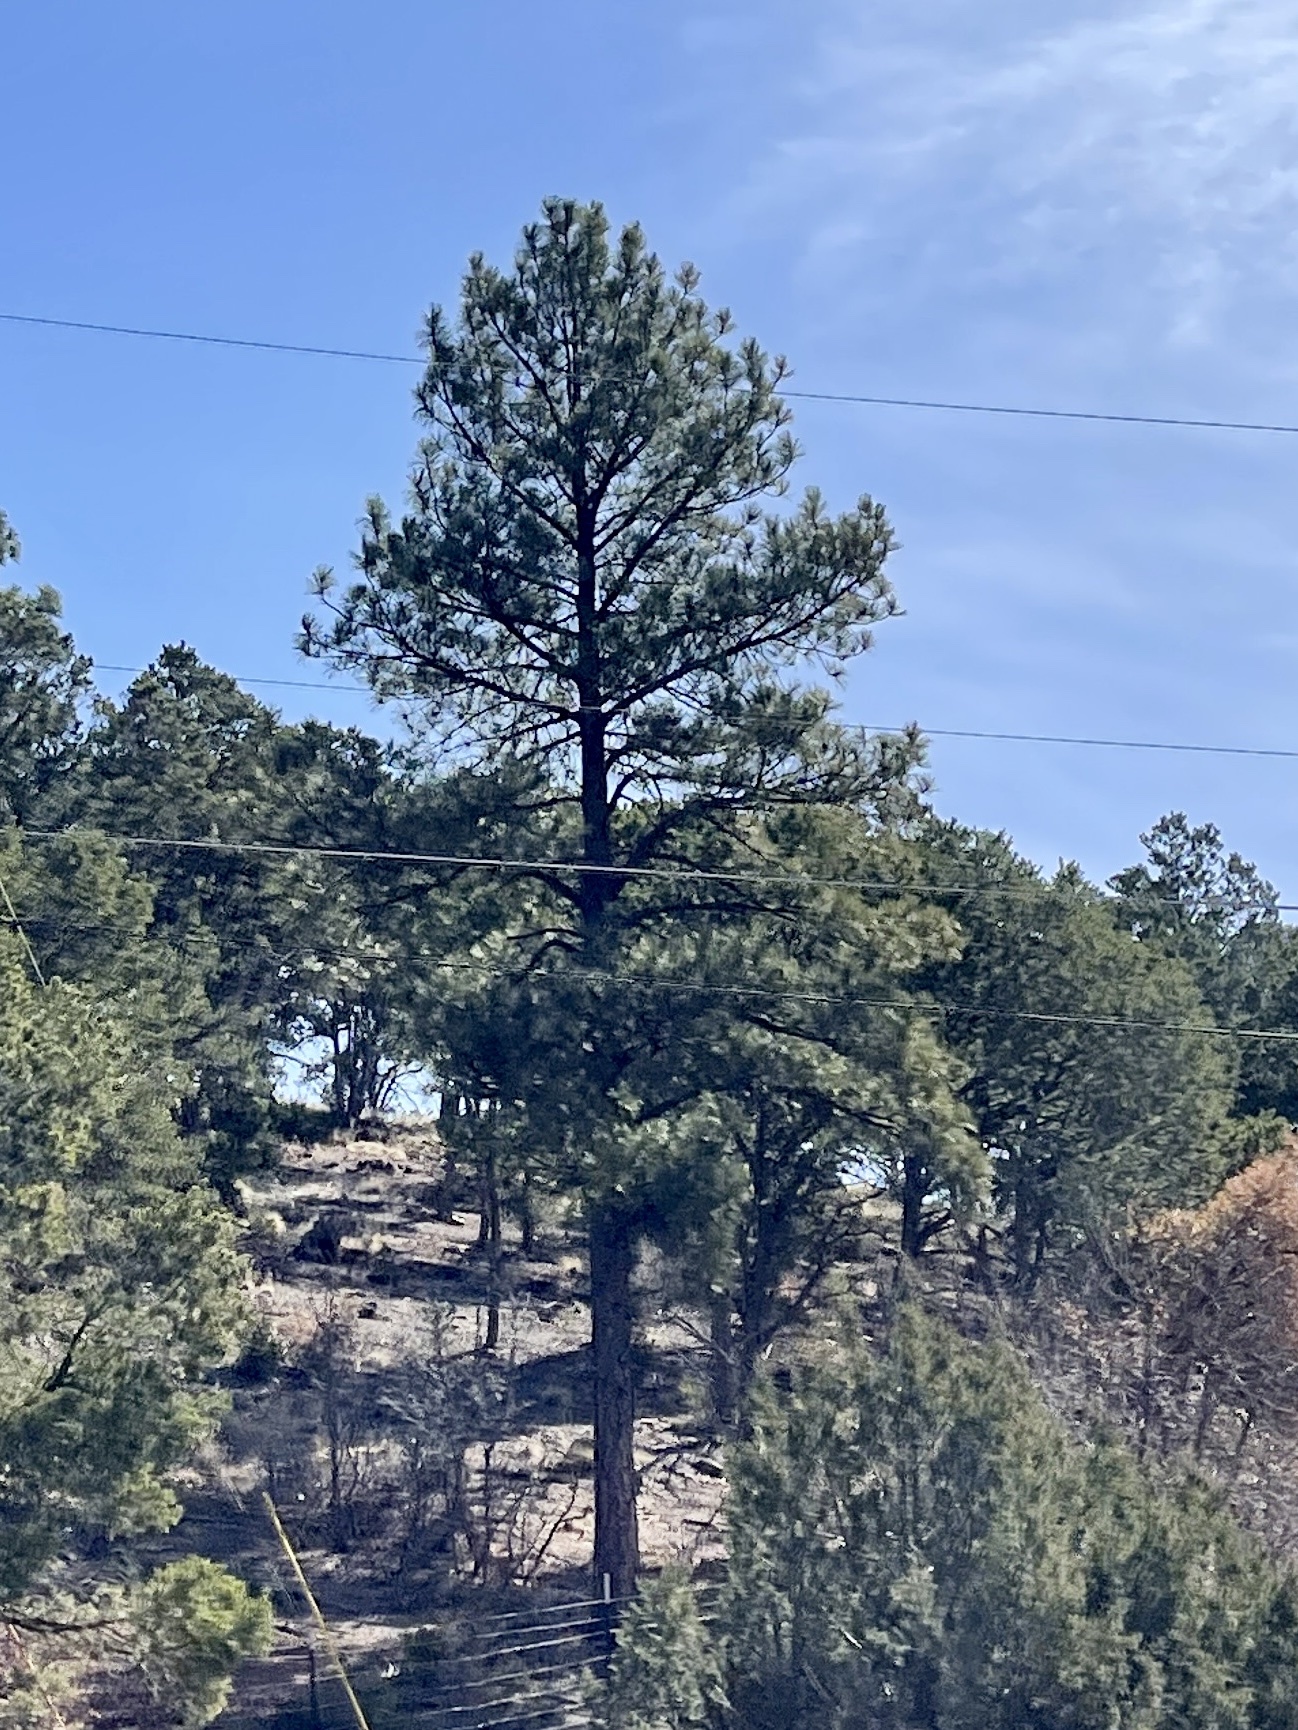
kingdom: Plantae
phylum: Tracheophyta
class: Pinopsida
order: Pinales
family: Pinaceae
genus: Pinus
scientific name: Pinus ponderosa
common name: Western yellow-pine
